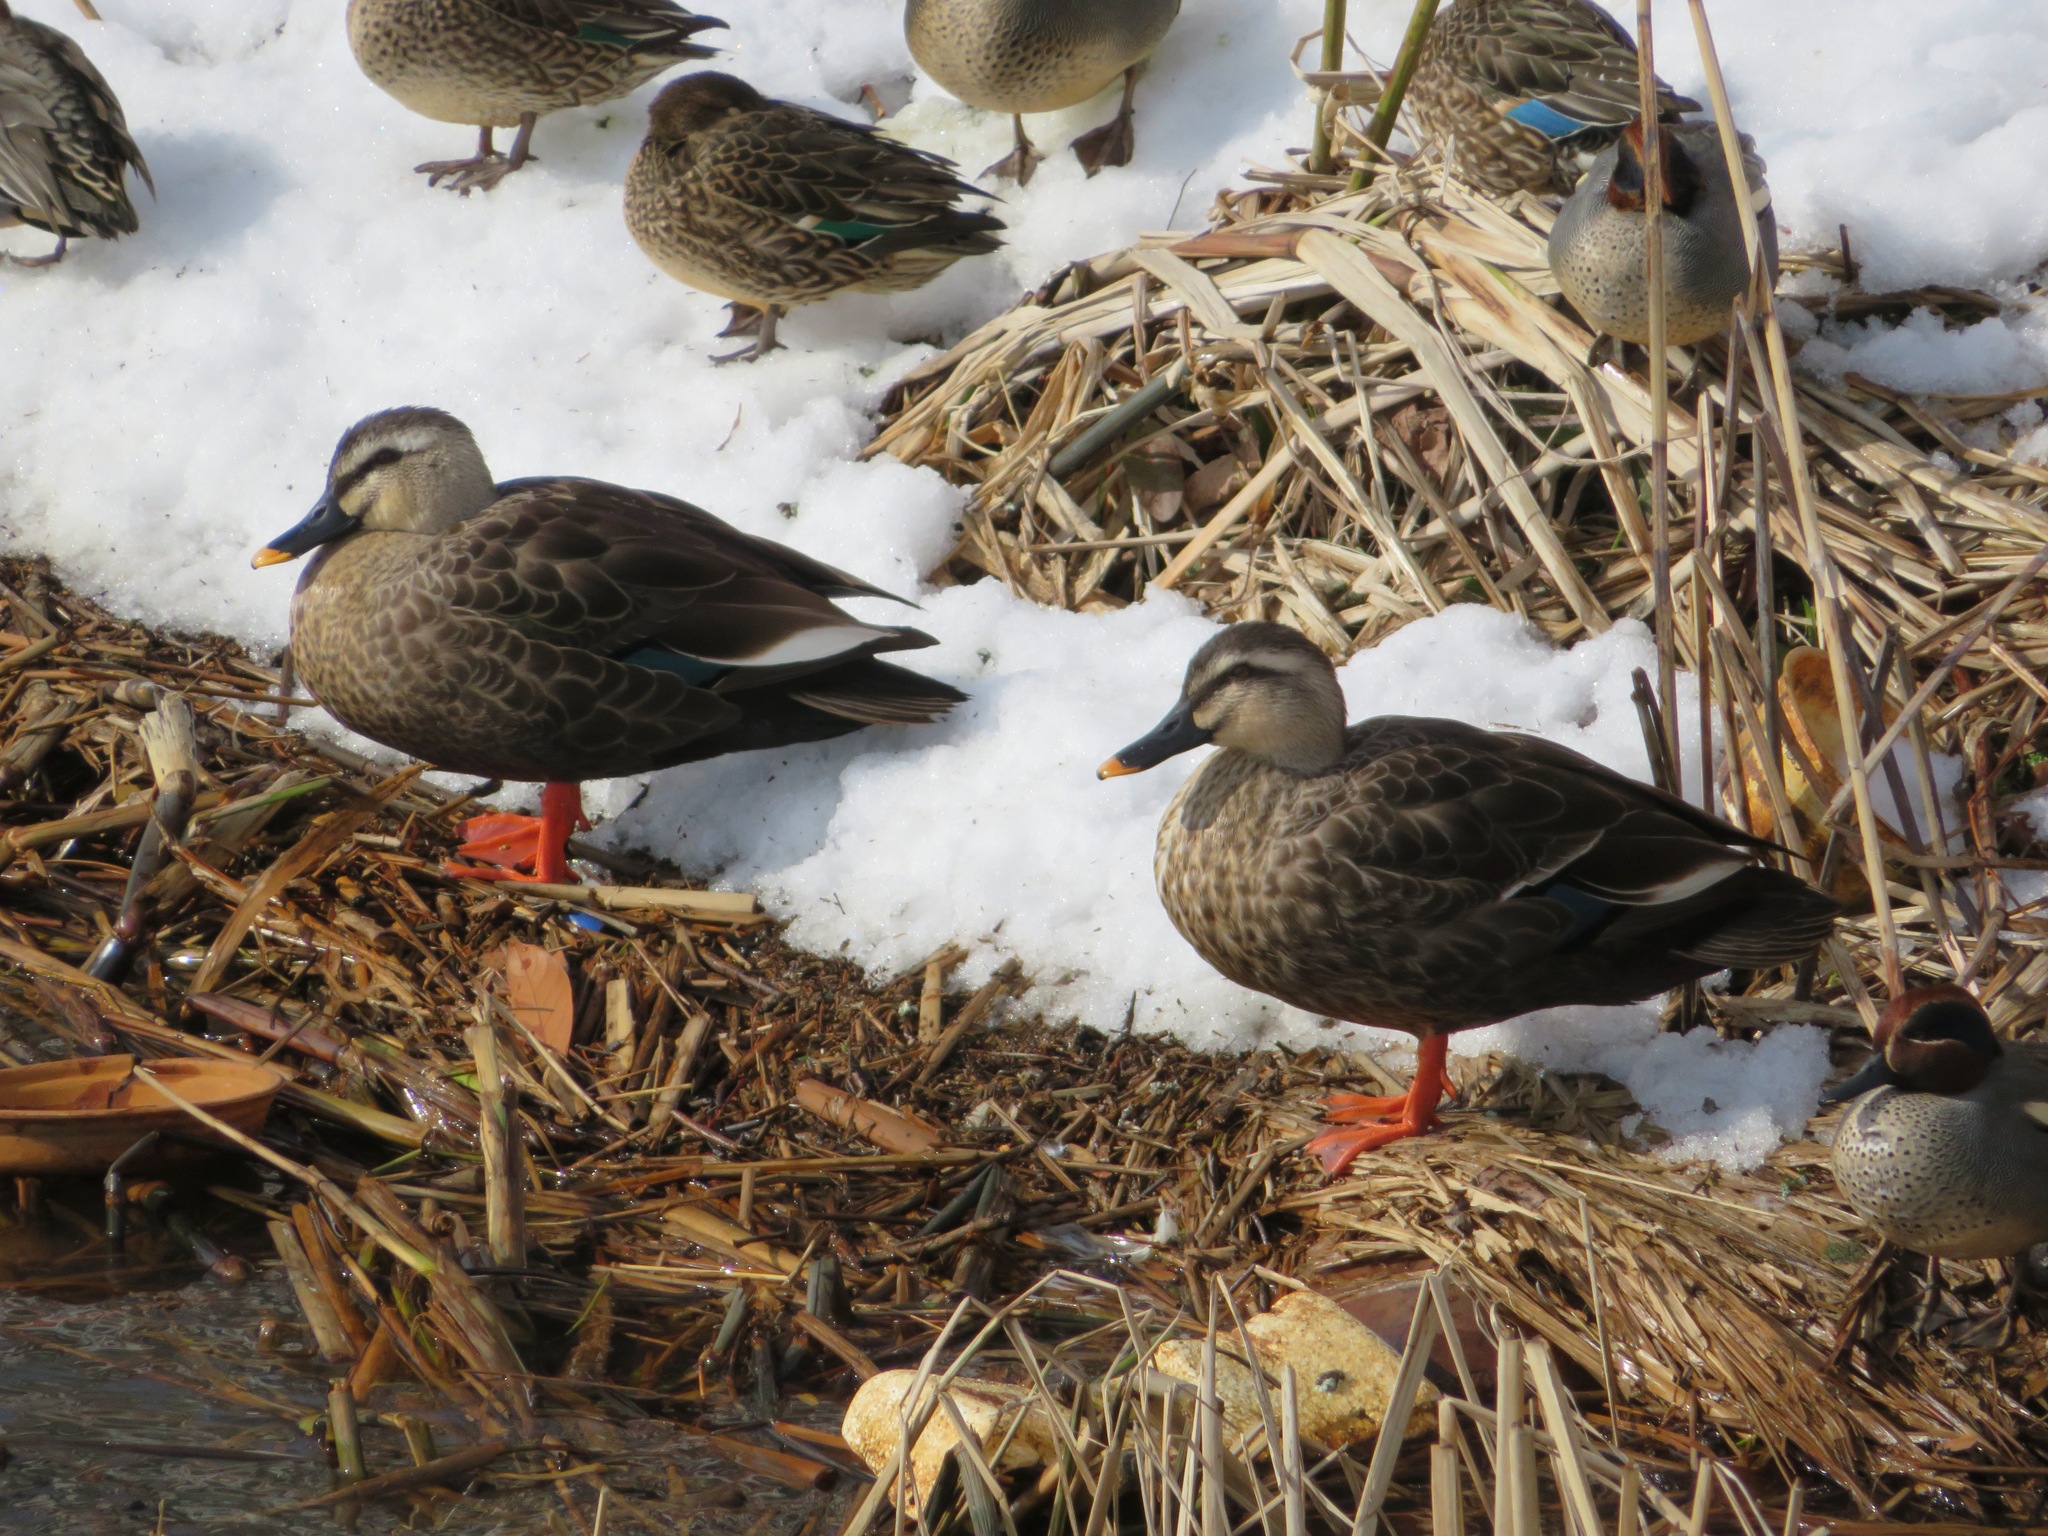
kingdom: Animalia
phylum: Chordata
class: Aves
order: Anseriformes
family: Anatidae
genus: Anas
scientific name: Anas zonorhyncha
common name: Eastern spot-billed duck
